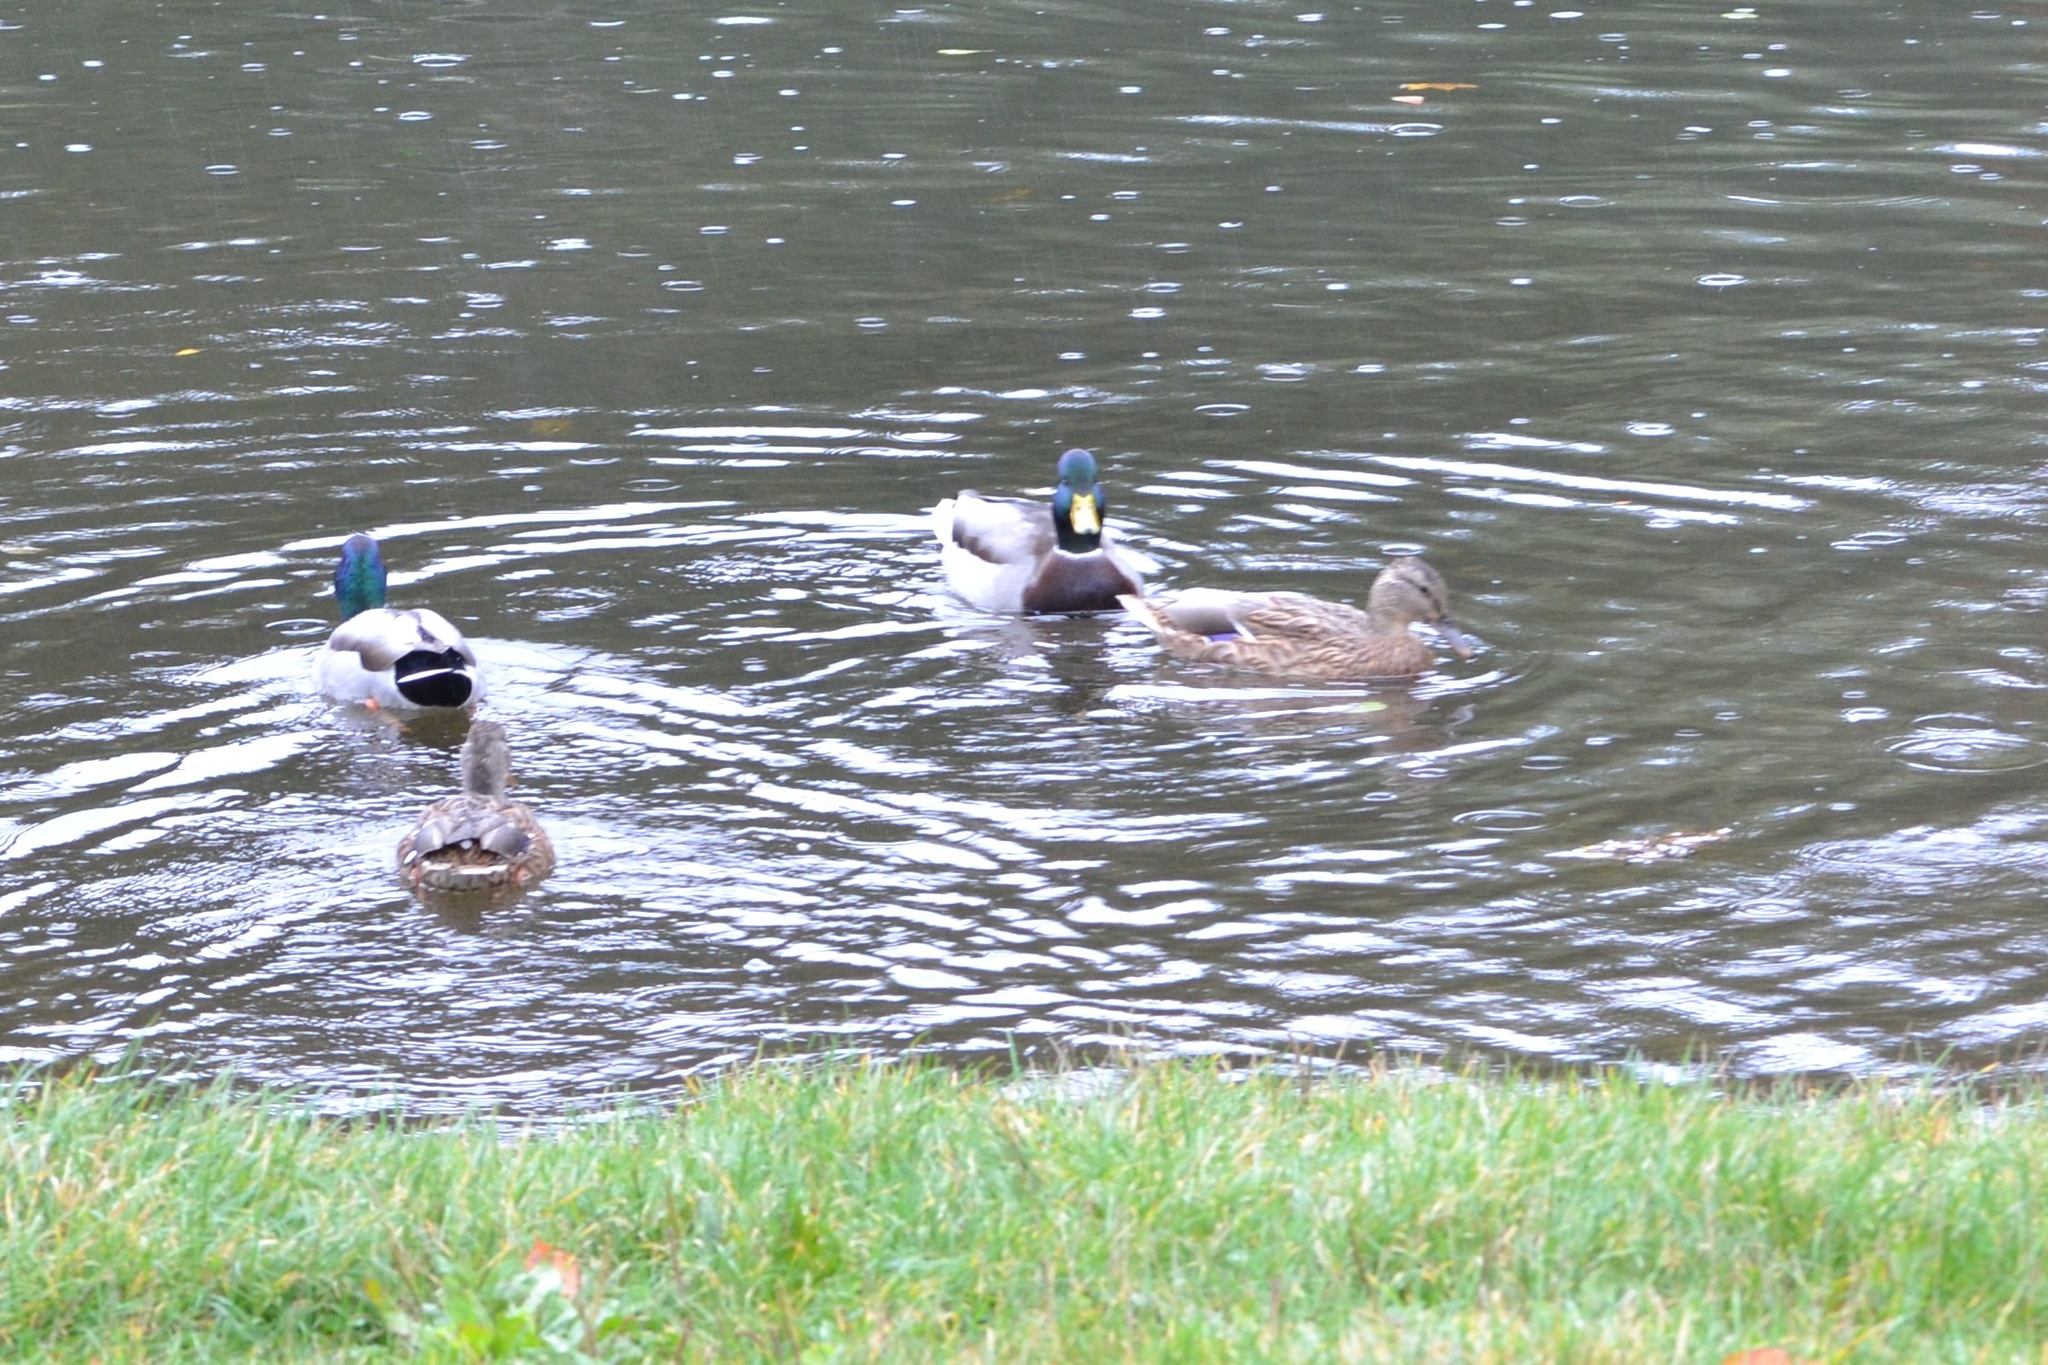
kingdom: Animalia
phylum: Chordata
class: Aves
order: Anseriformes
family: Anatidae
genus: Anas
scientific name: Anas platyrhynchos
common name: Mallard
